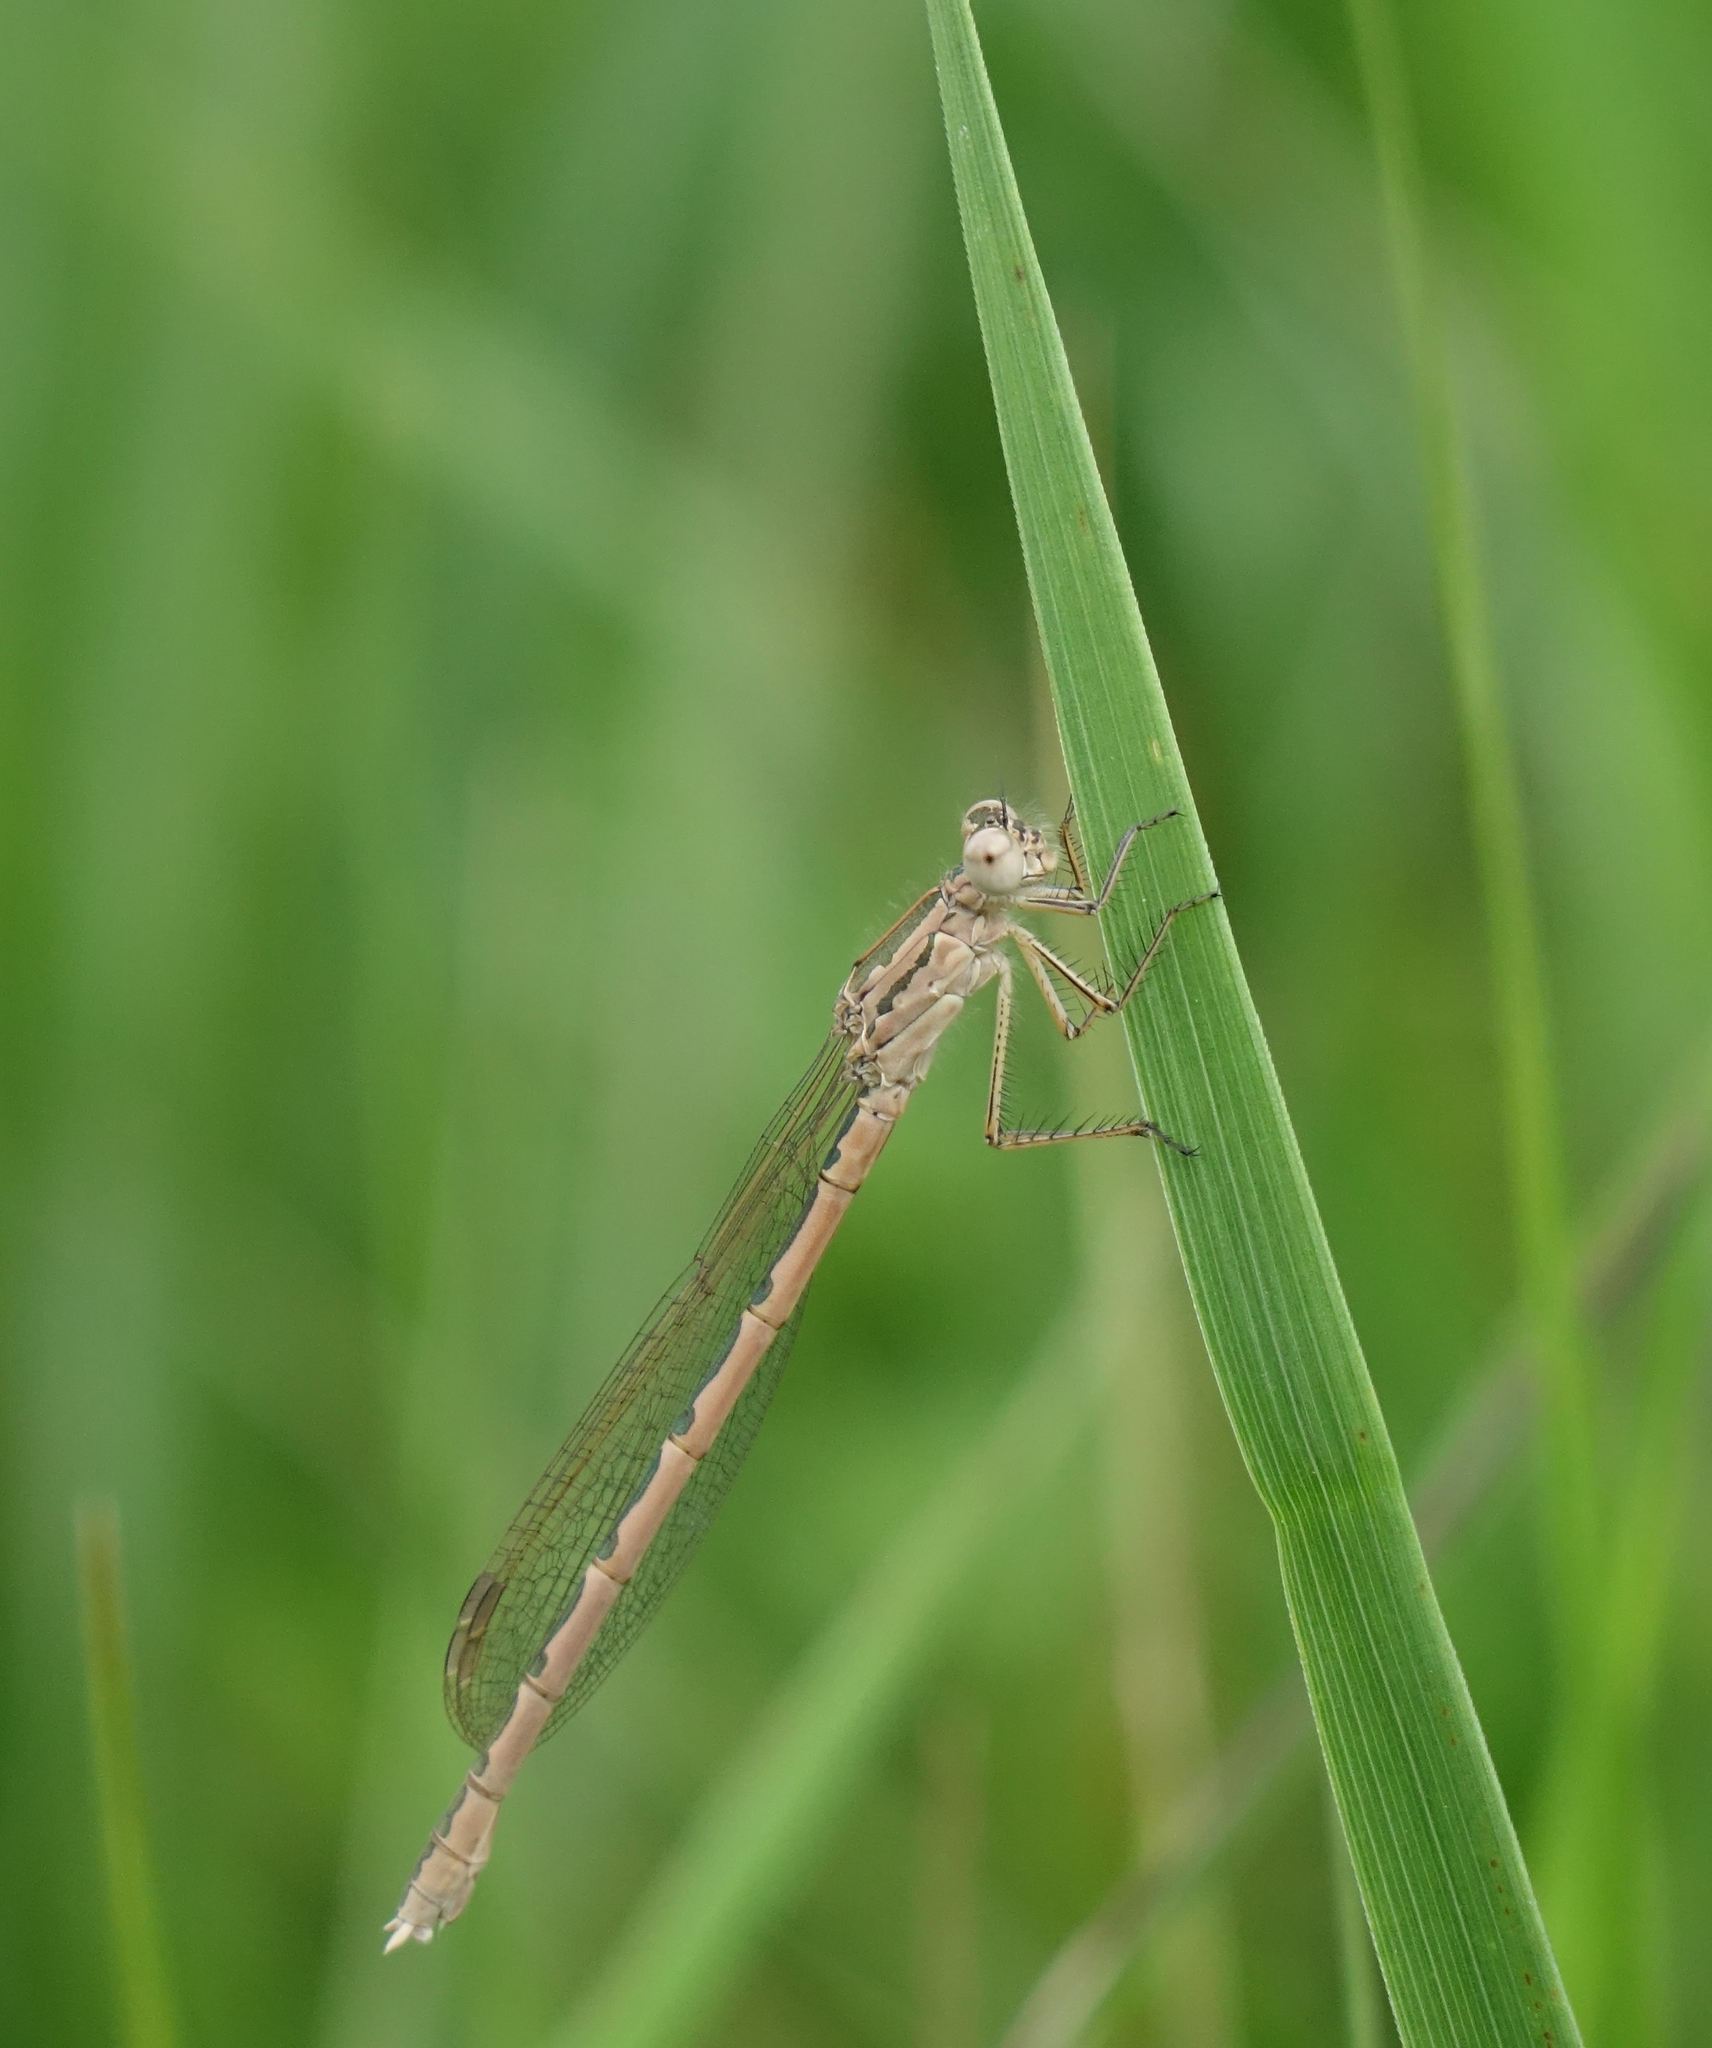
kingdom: Animalia
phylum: Arthropoda
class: Insecta
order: Odonata
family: Lestidae
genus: Sympecma
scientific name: Sympecma paedisca
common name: Siberian winter damsel
